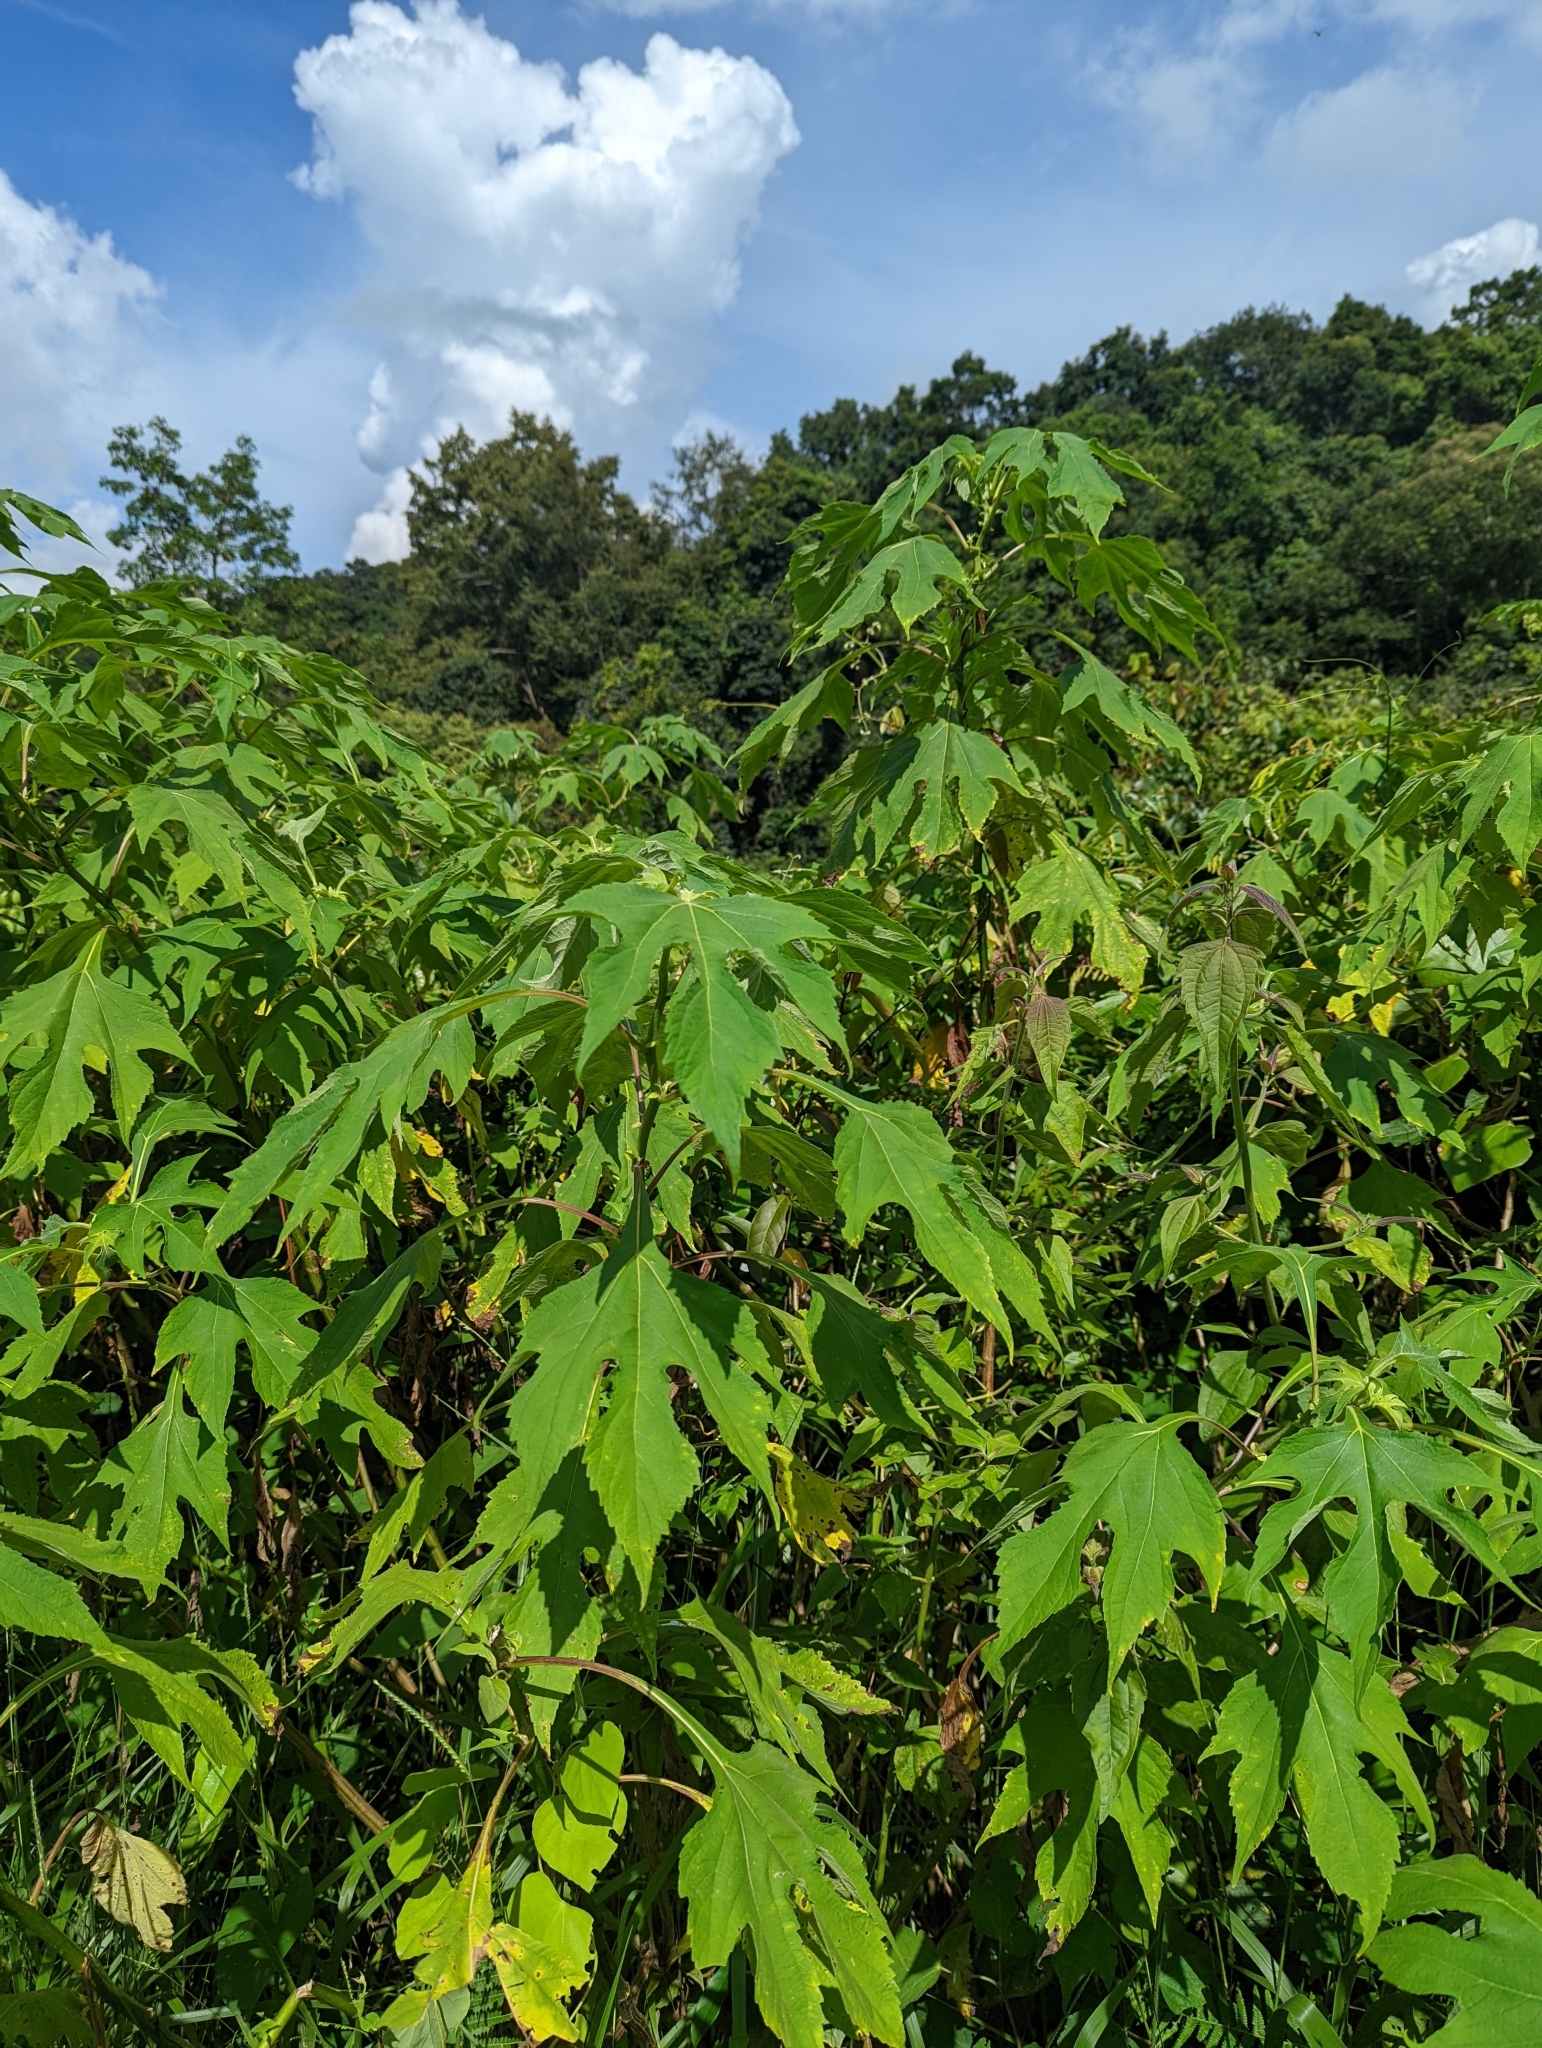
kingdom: Plantae
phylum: Tracheophyta
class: Magnoliopsida
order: Rosales
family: Moraceae
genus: Broussonetia
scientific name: Broussonetia papyrifera
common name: Paper mulberry
